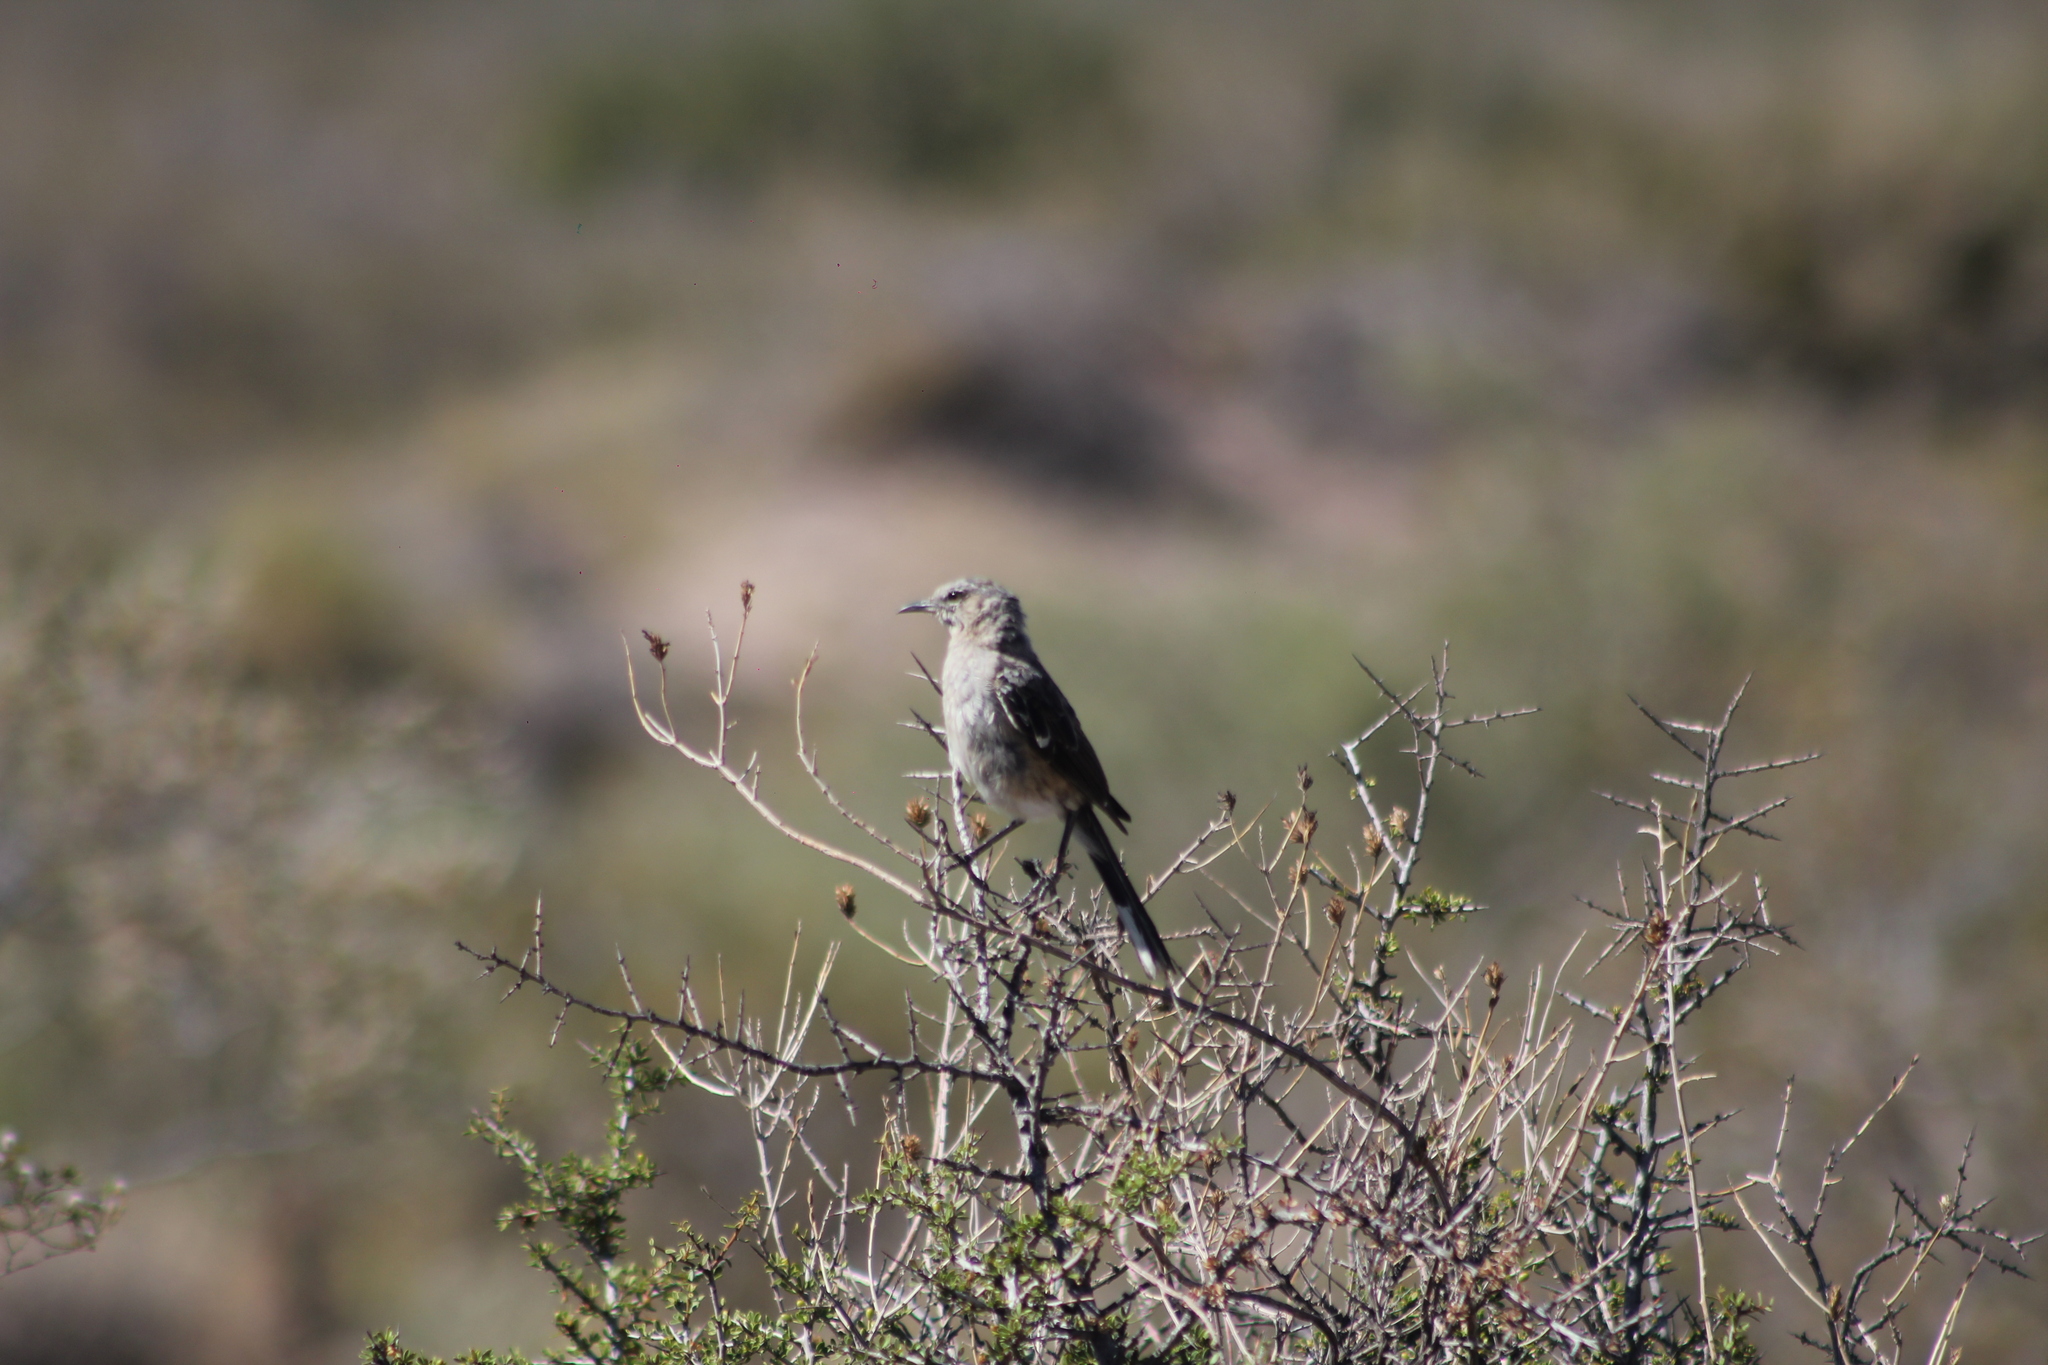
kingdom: Animalia
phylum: Chordata
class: Aves
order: Passeriformes
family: Mimidae
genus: Mimus
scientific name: Mimus patagonicus
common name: Patagonian mockingbird
